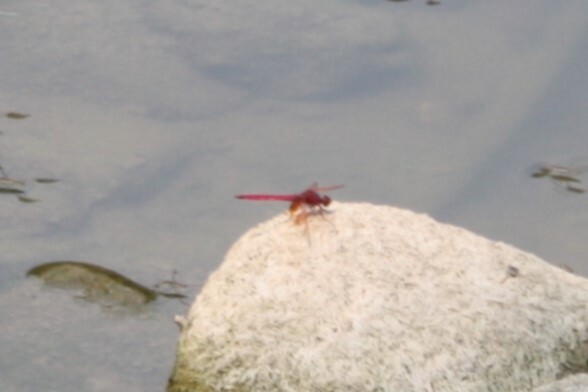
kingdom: Animalia
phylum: Arthropoda
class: Insecta
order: Odonata
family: Libellulidae
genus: Trithemis
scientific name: Trithemis aurora
